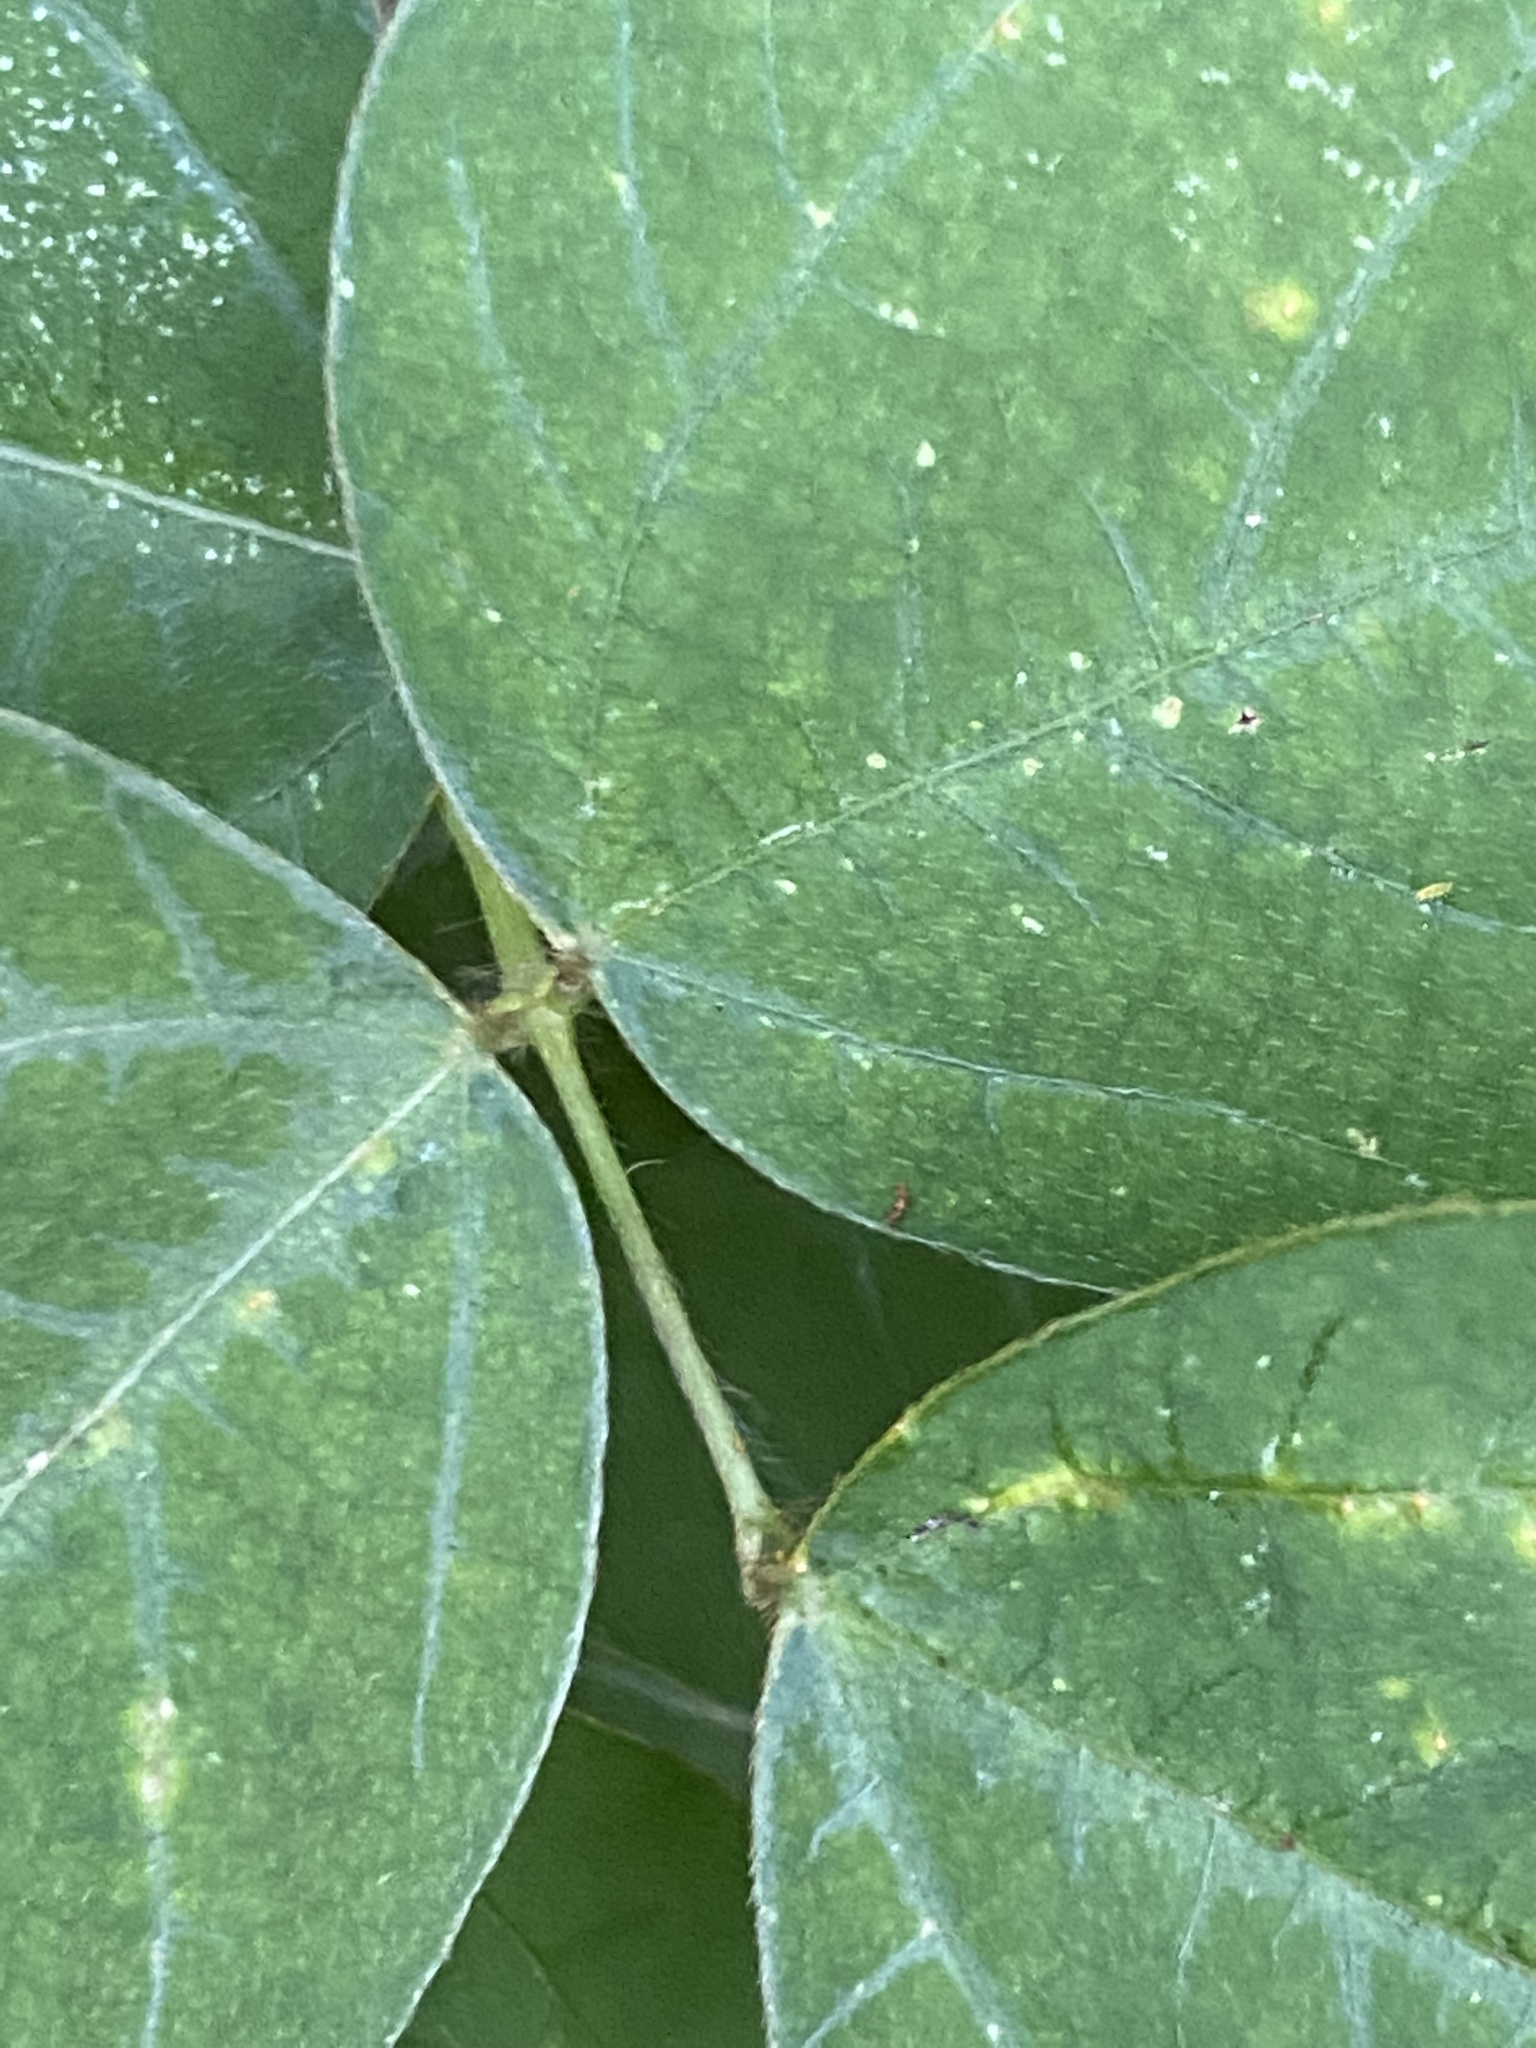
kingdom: Plantae
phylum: Tracheophyta
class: Magnoliopsida
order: Fabales
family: Fabaceae
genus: Amphicarpaea
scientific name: Amphicarpaea bracteata
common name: American hog peanut
